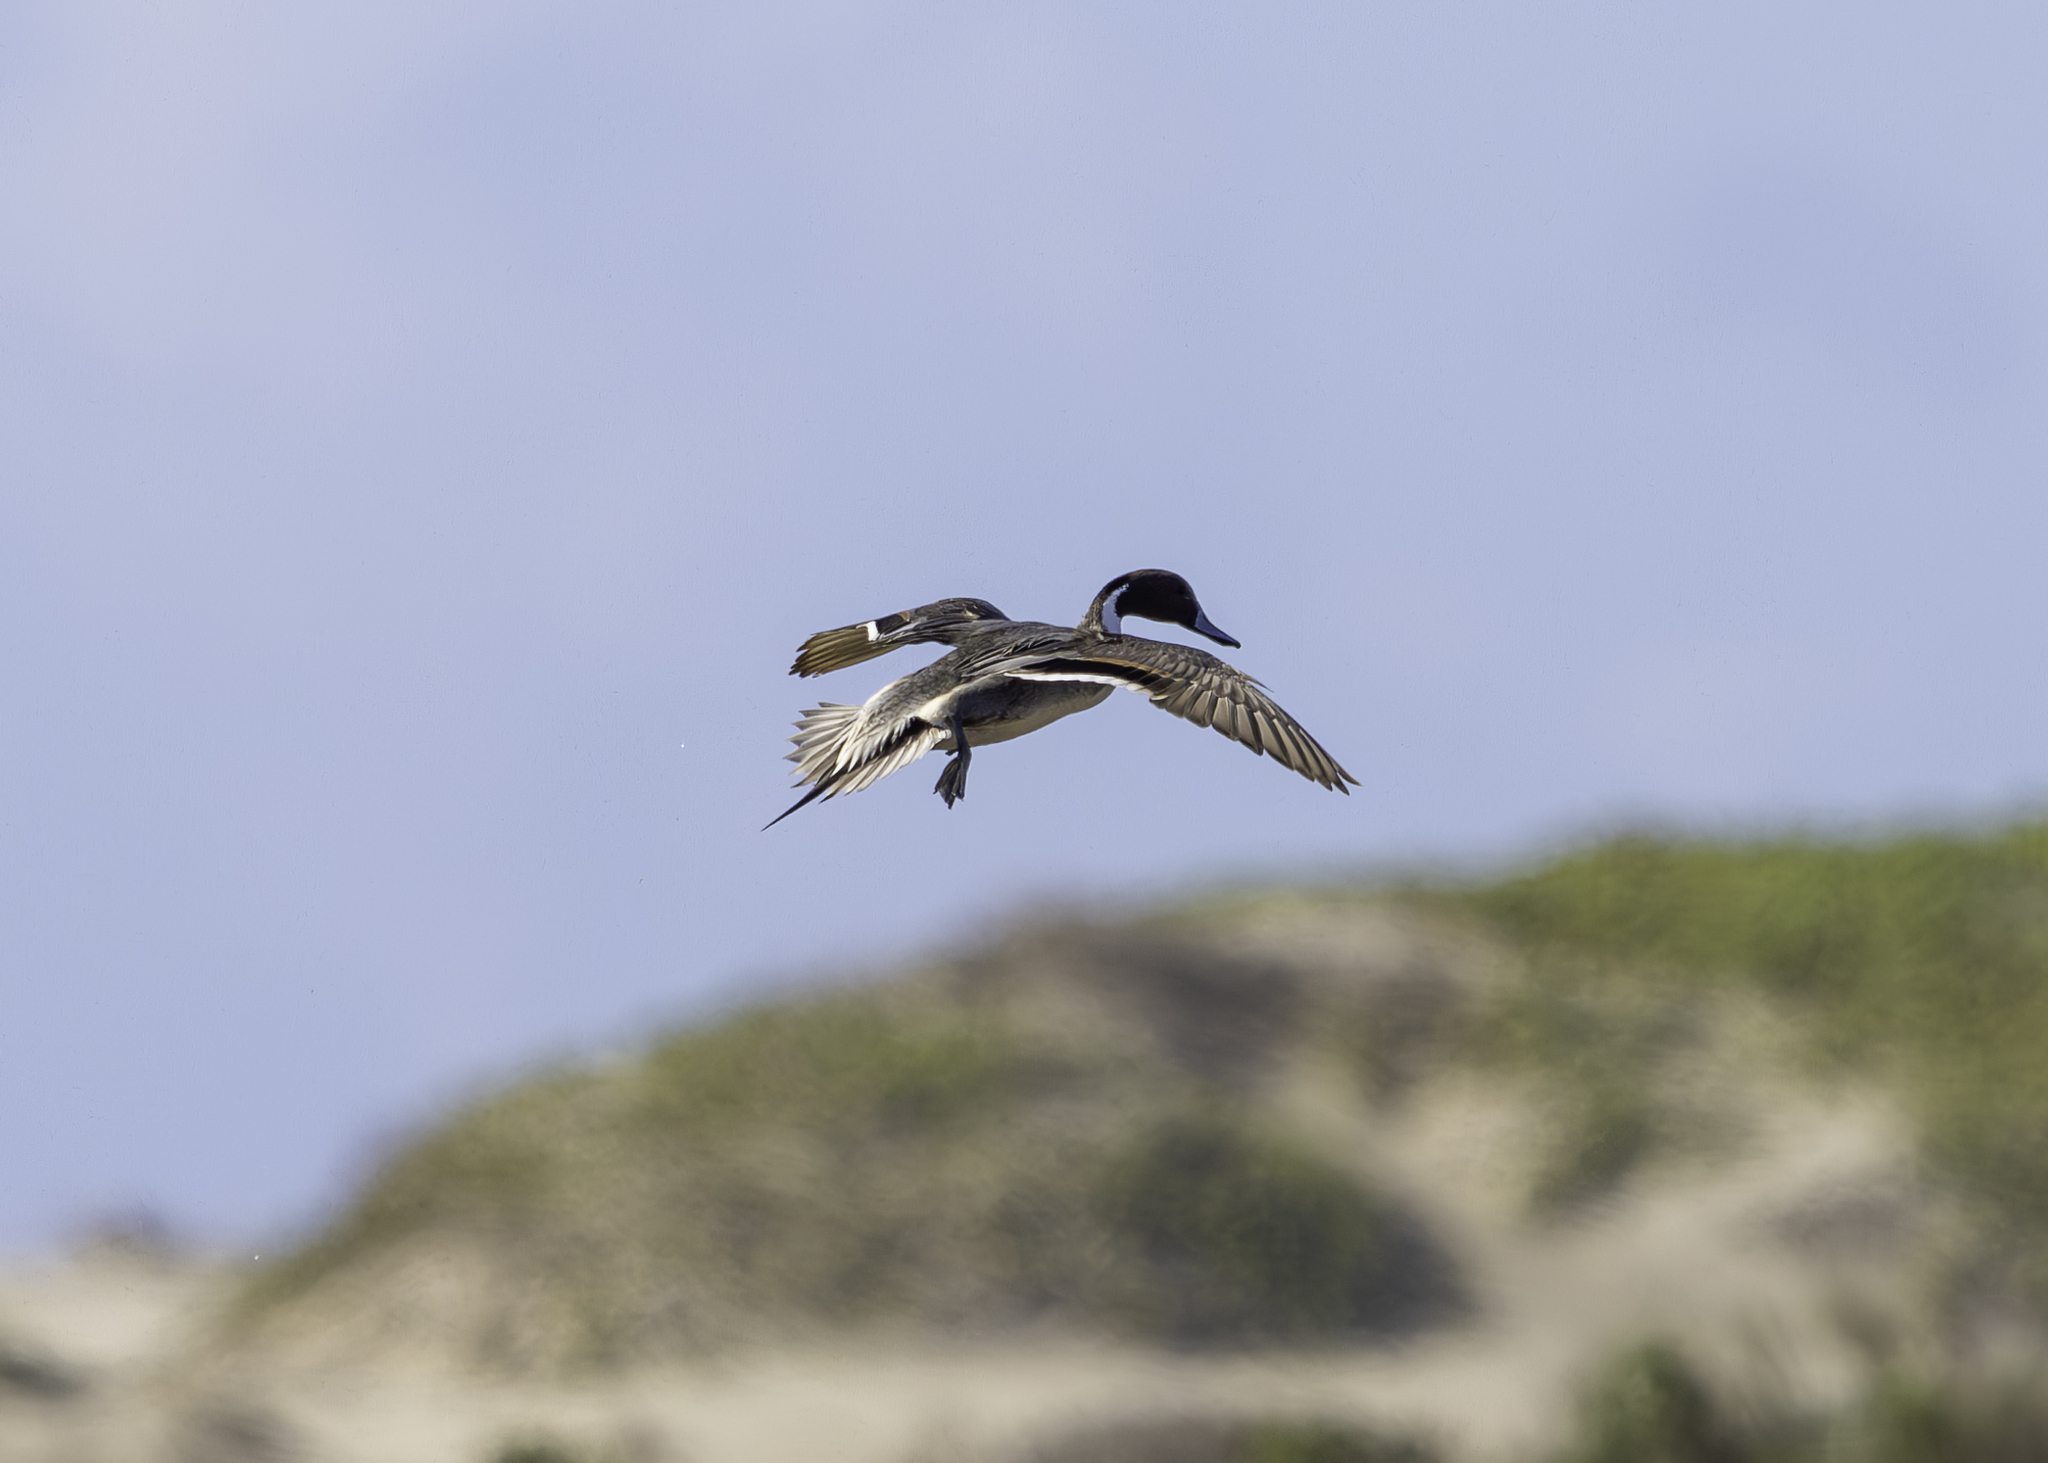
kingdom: Animalia
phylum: Chordata
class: Aves
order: Anseriformes
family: Anatidae
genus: Anas
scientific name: Anas acuta
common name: Northern pintail
